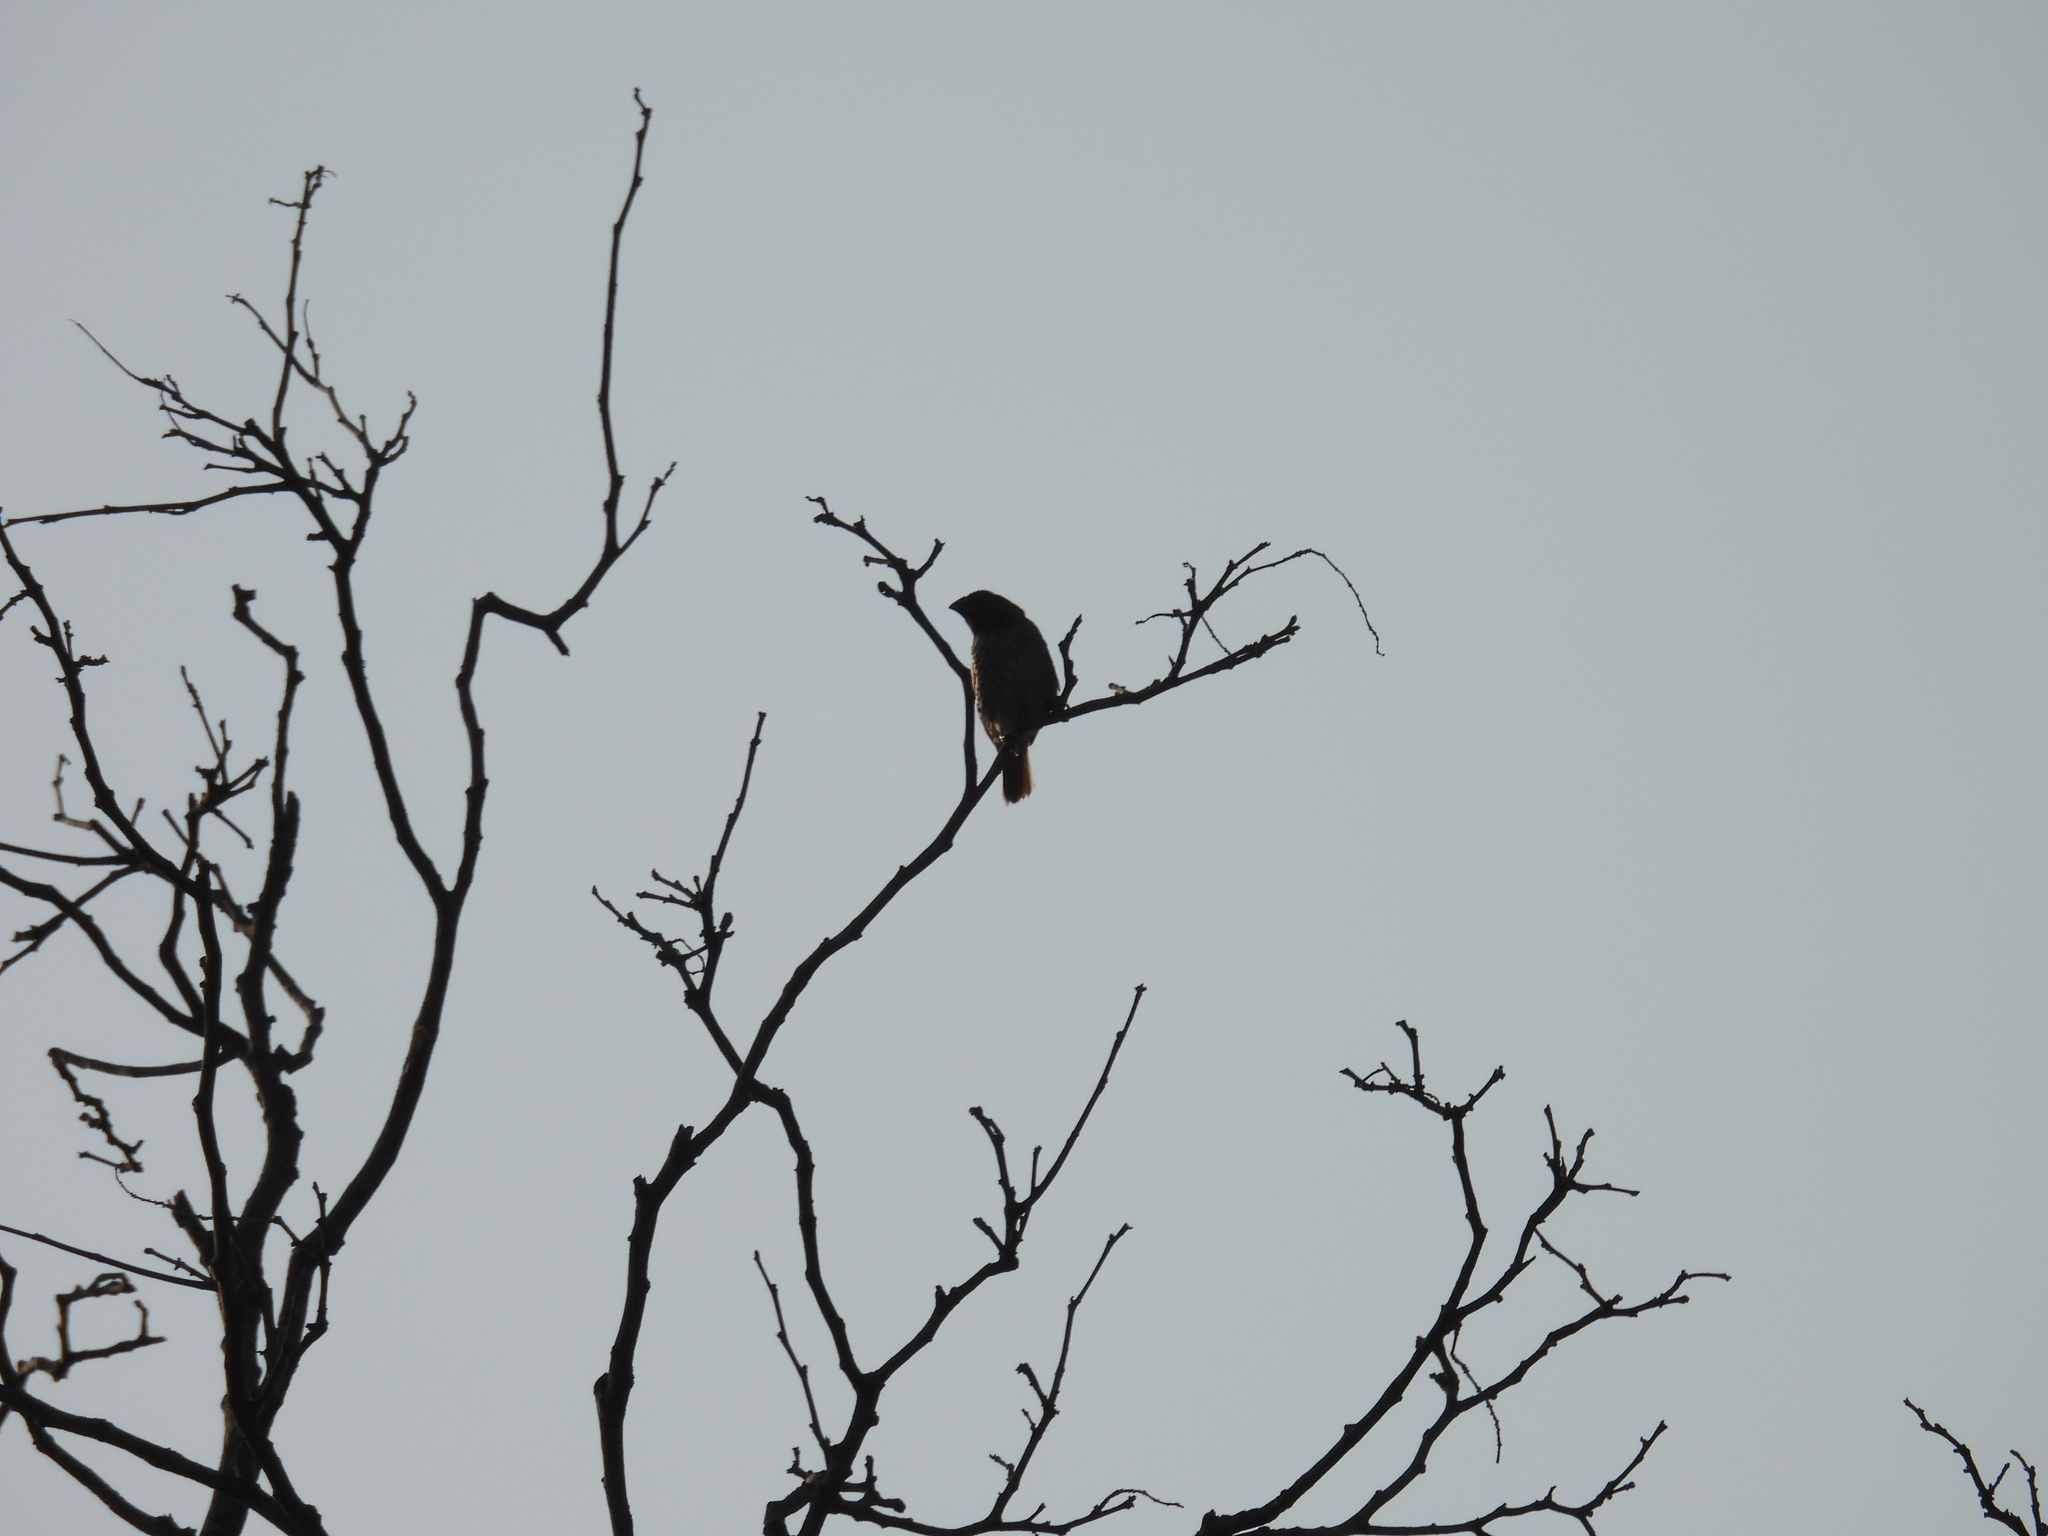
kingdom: Animalia
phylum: Chordata
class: Aves
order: Passeriformes
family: Estrildidae
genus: Lonchura
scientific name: Lonchura punctulata
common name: Scaly-breasted munia
